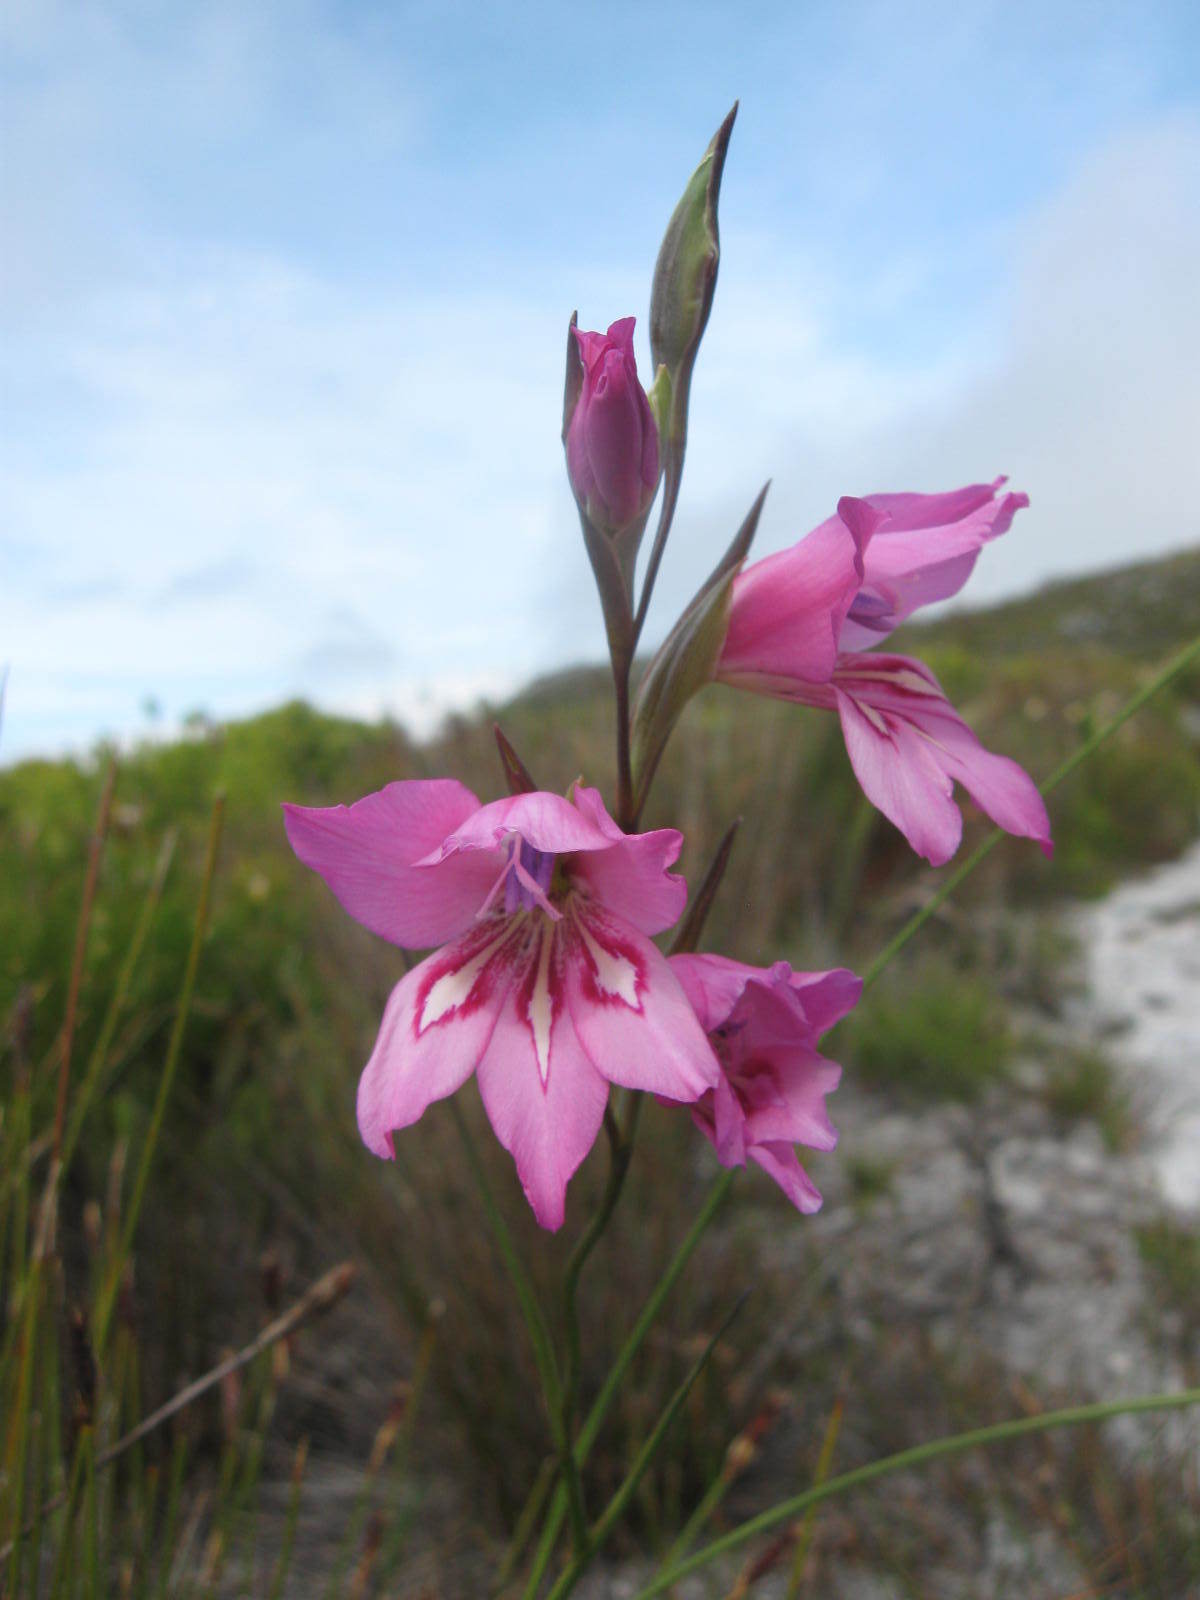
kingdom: Plantae
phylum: Tracheophyta
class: Liliopsida
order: Asparagales
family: Iridaceae
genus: Gladiolus
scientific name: Gladiolus ornatus
